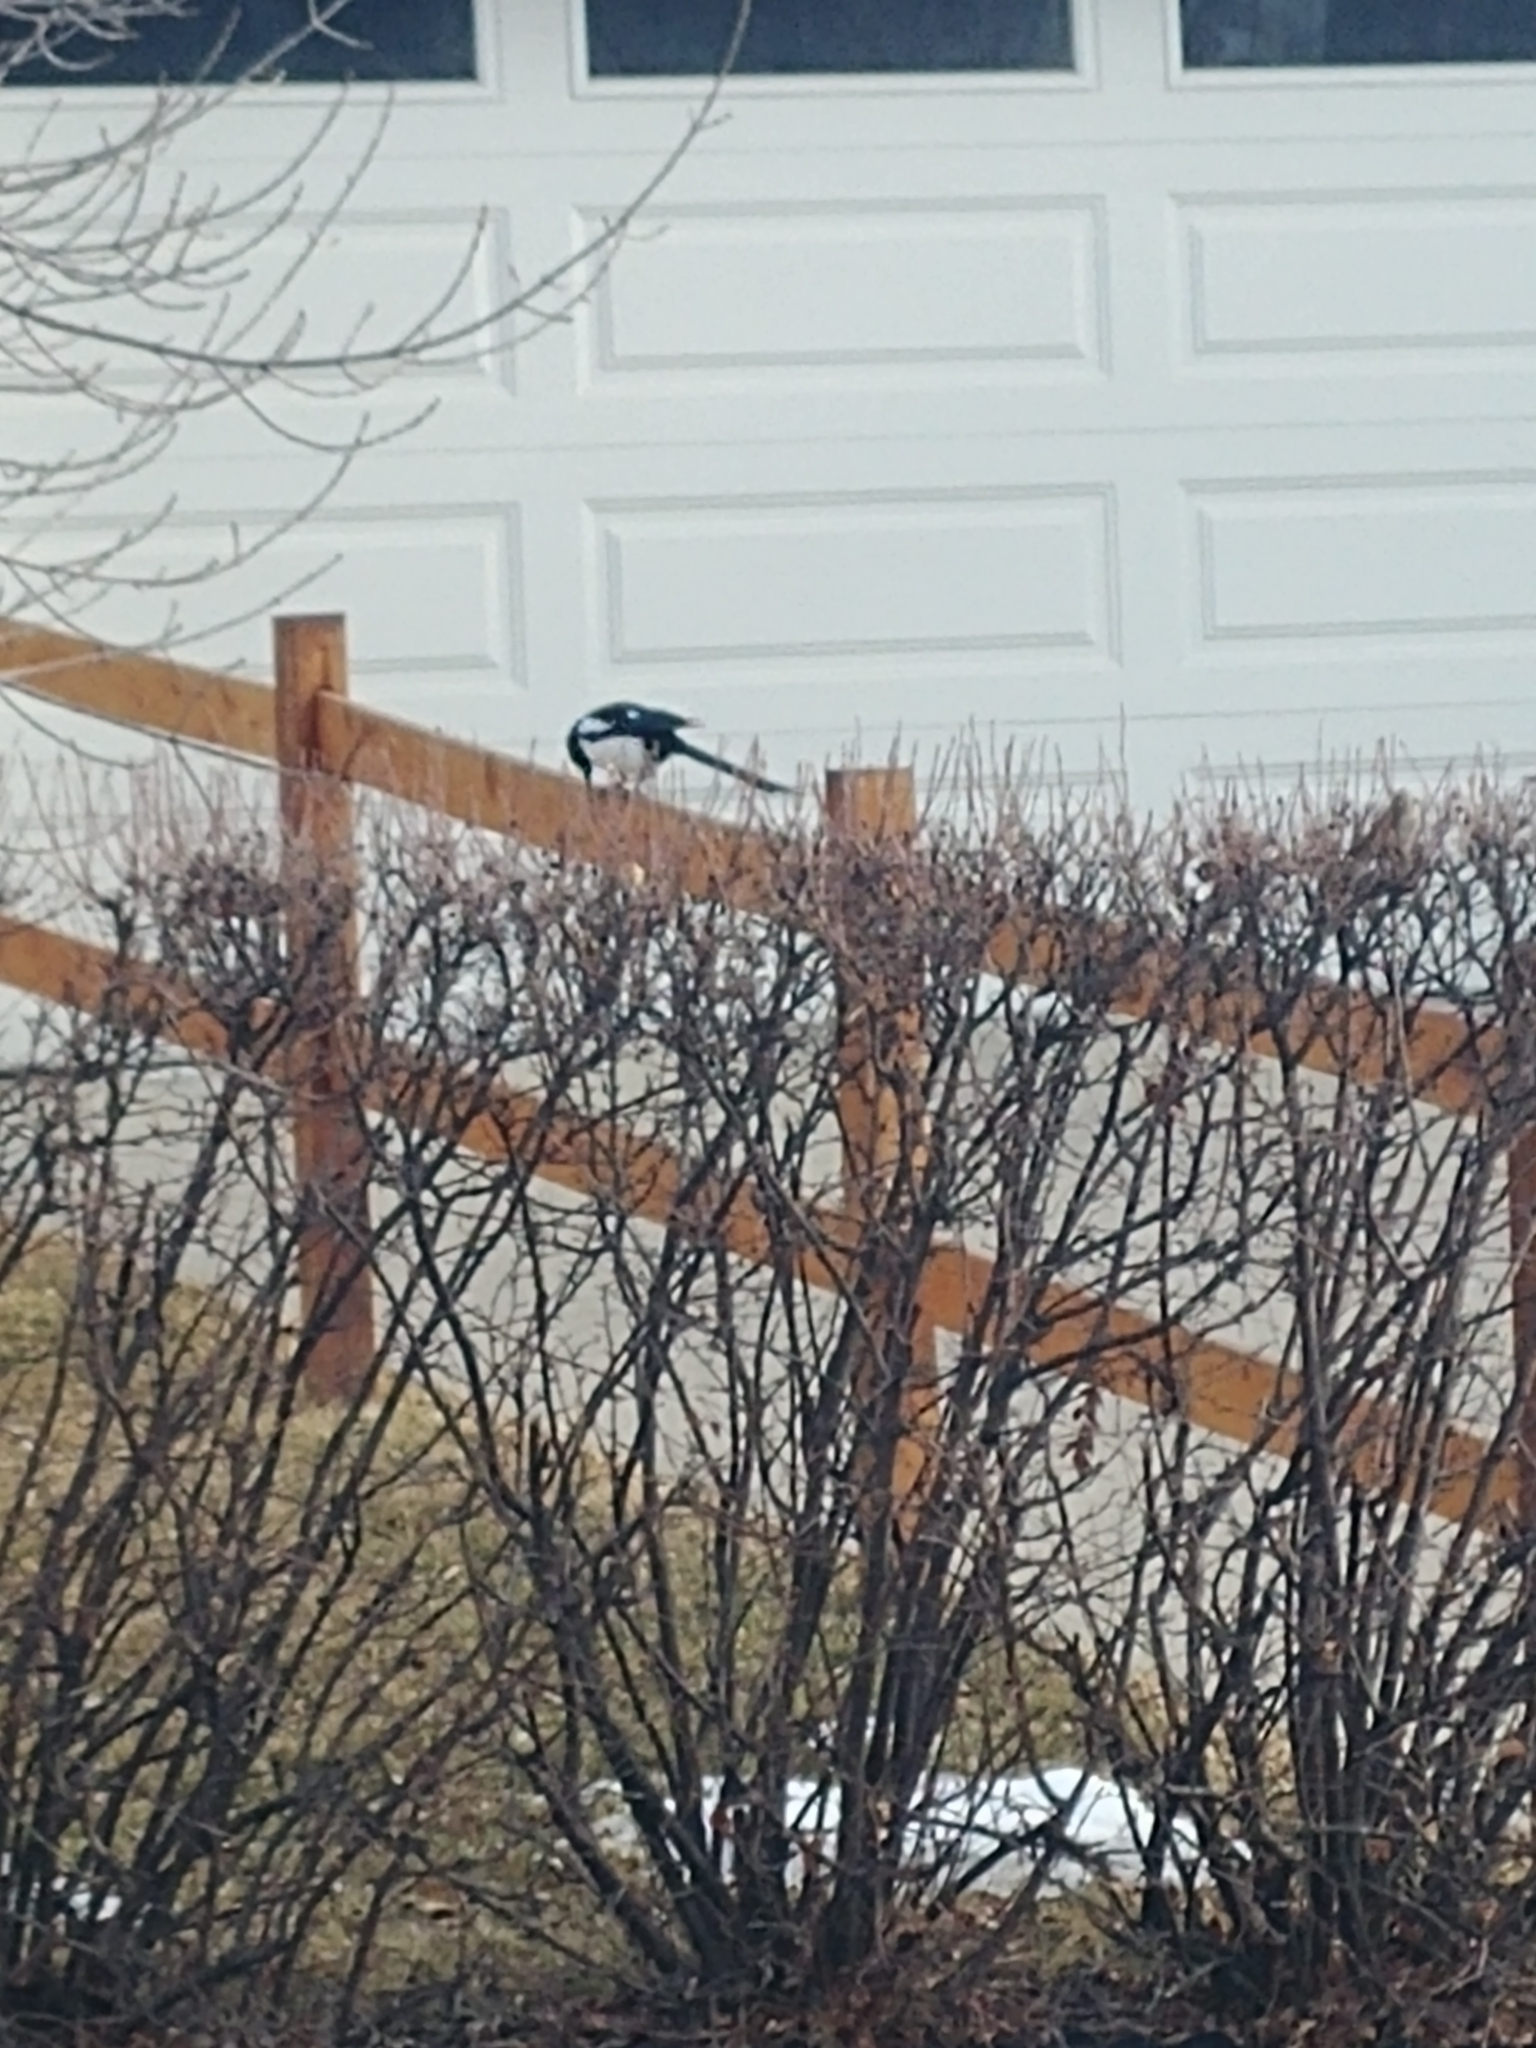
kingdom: Animalia
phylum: Chordata
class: Aves
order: Passeriformes
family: Corvidae
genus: Pica
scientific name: Pica hudsonia
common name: Black-billed magpie
